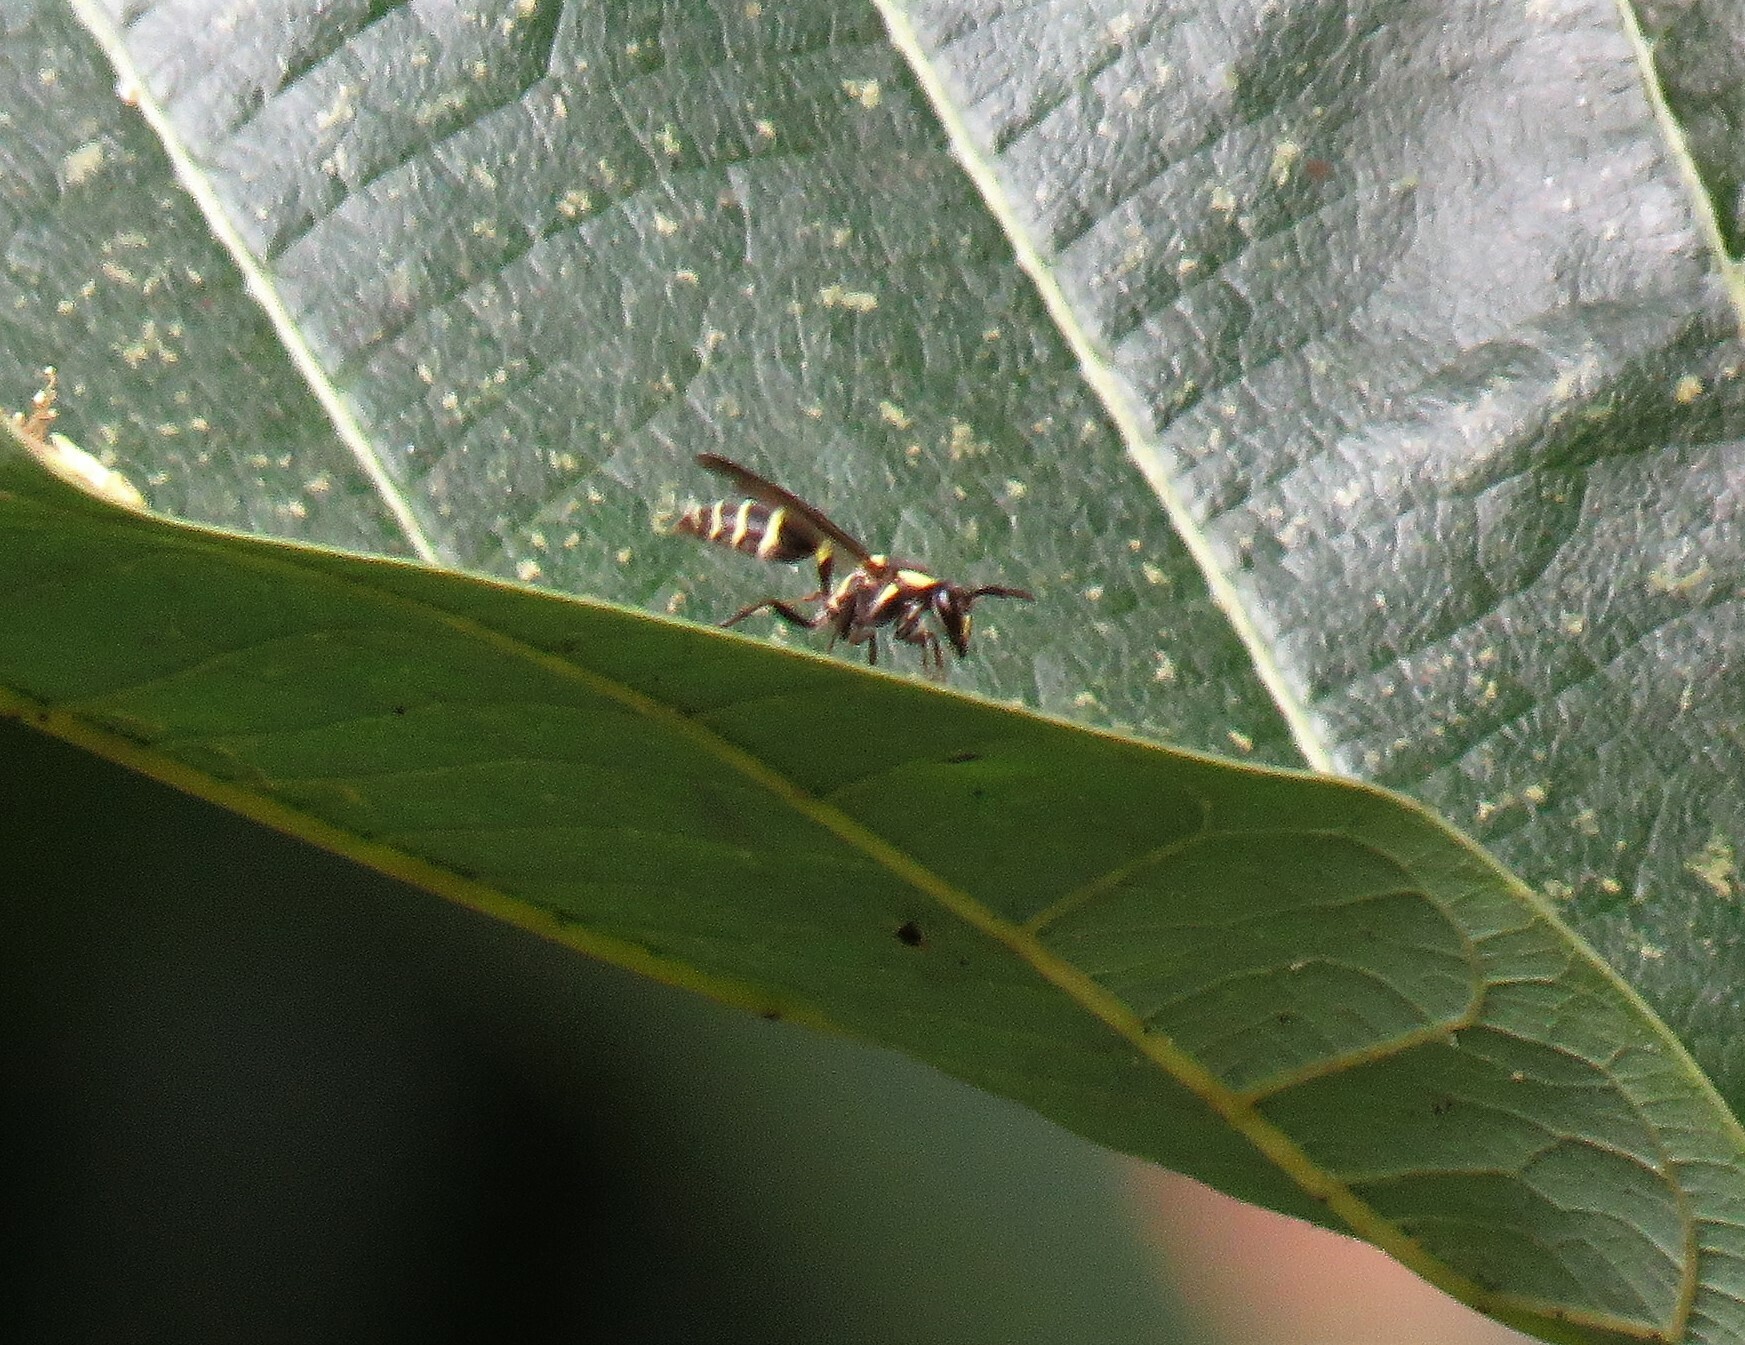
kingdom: Animalia
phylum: Arthropoda
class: Insecta
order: Hymenoptera
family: Eumenidae
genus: Polybia
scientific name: Polybia occidentalis
